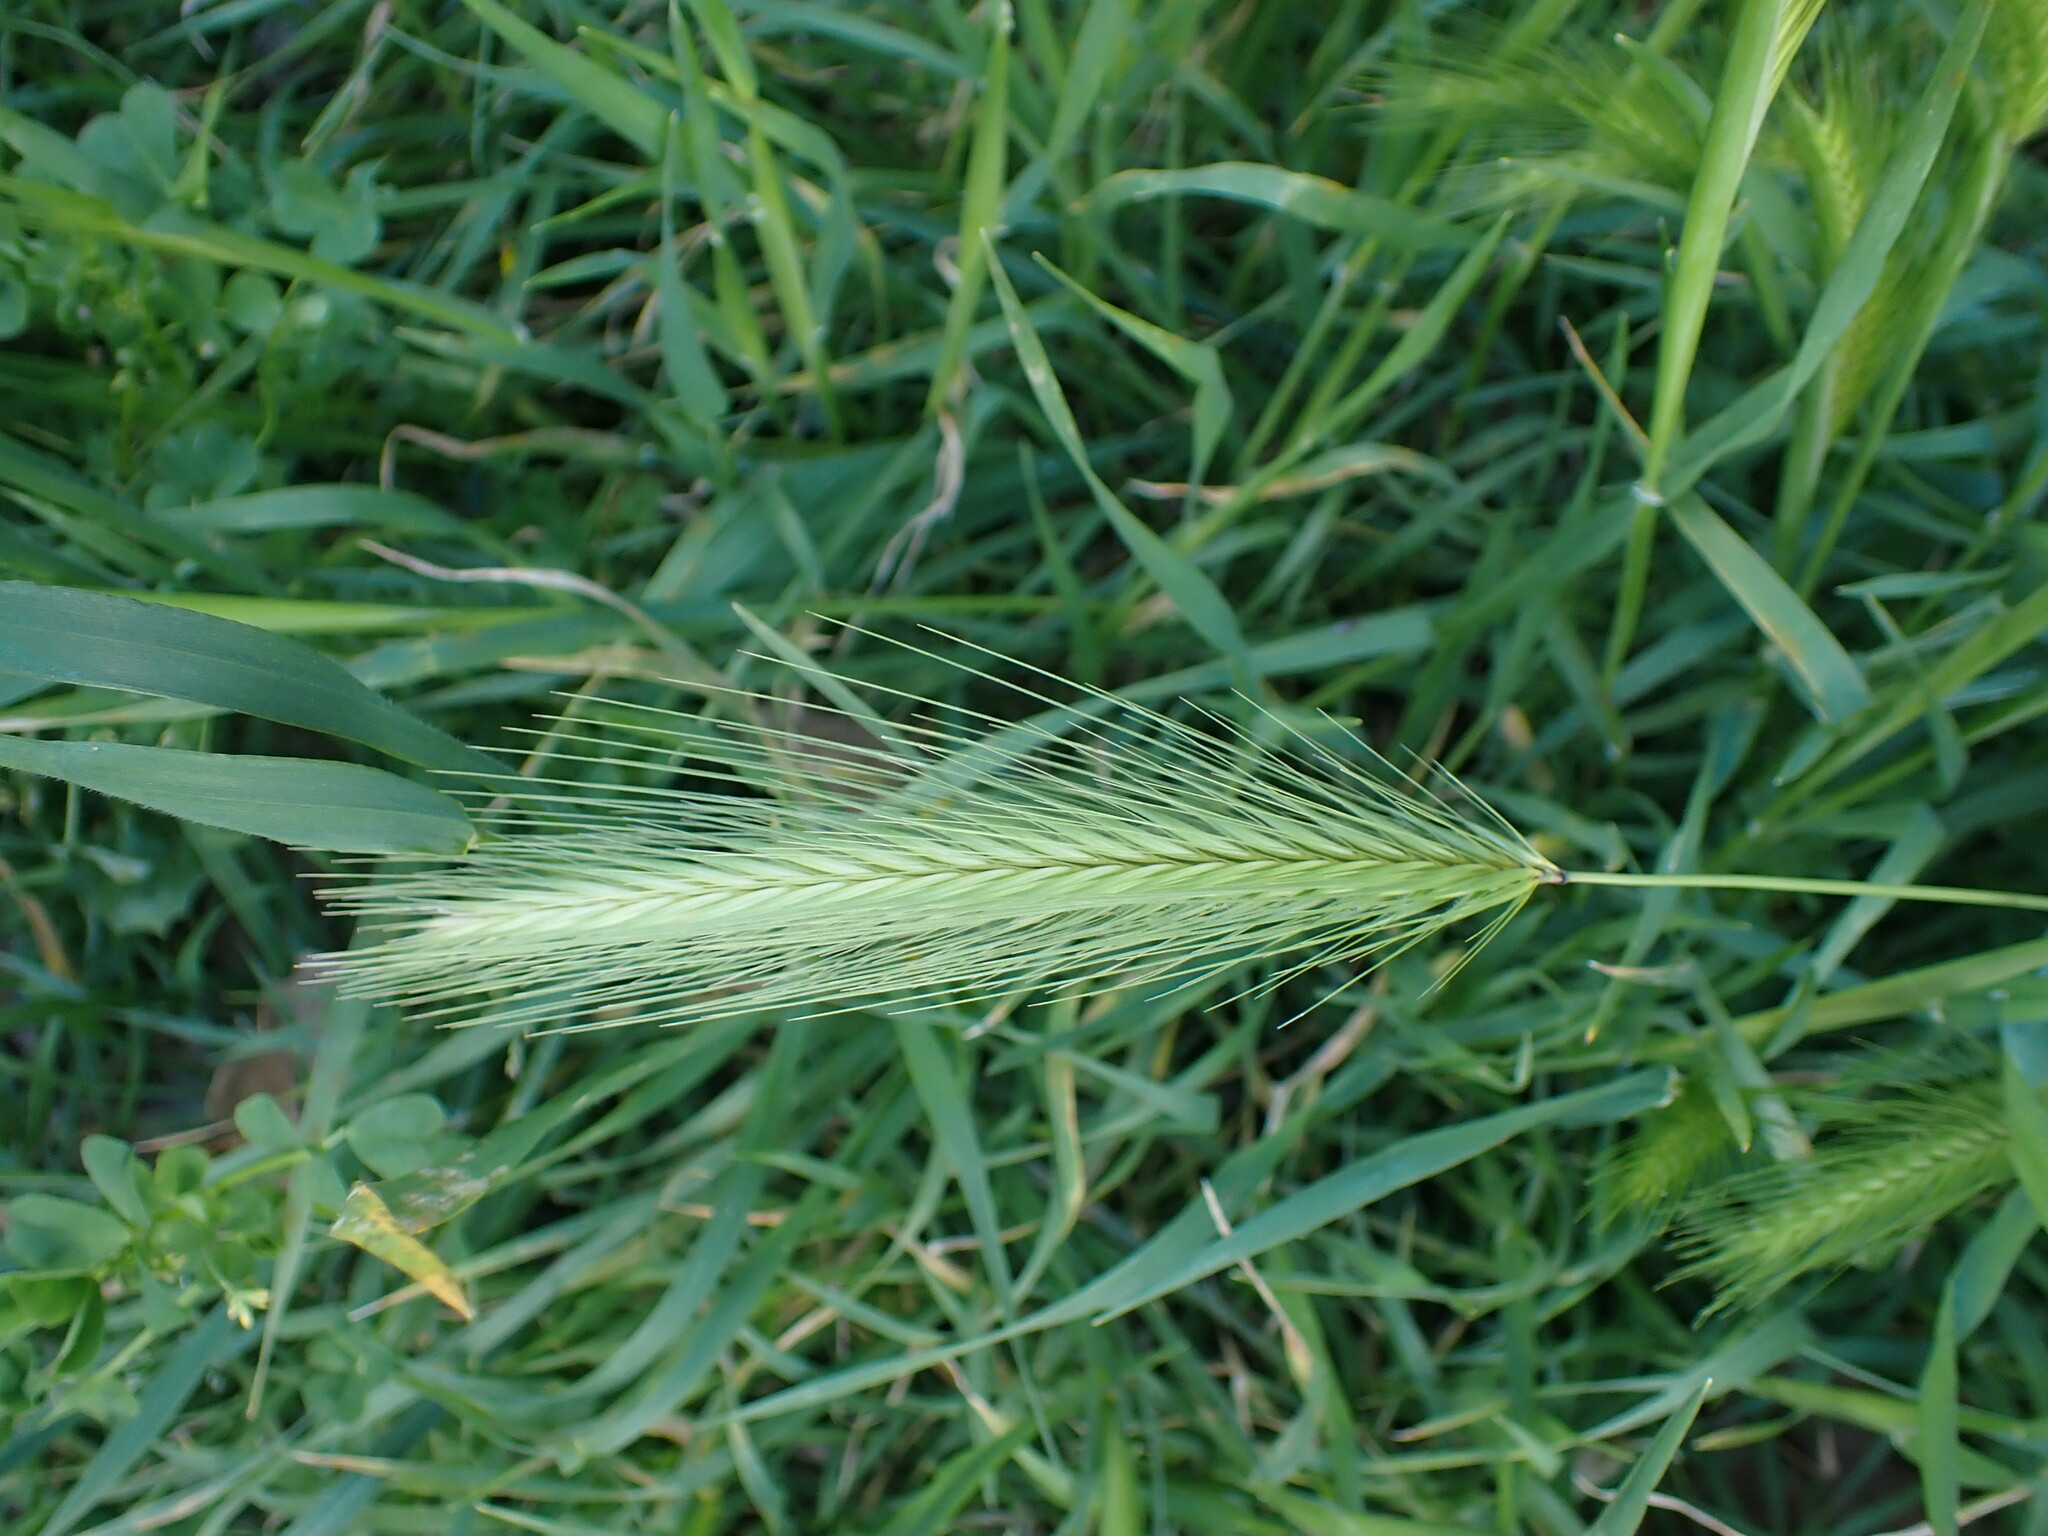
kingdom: Plantae
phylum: Tracheophyta
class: Liliopsida
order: Poales
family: Poaceae
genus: Hordeum
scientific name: Hordeum murinum
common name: Wall barley
